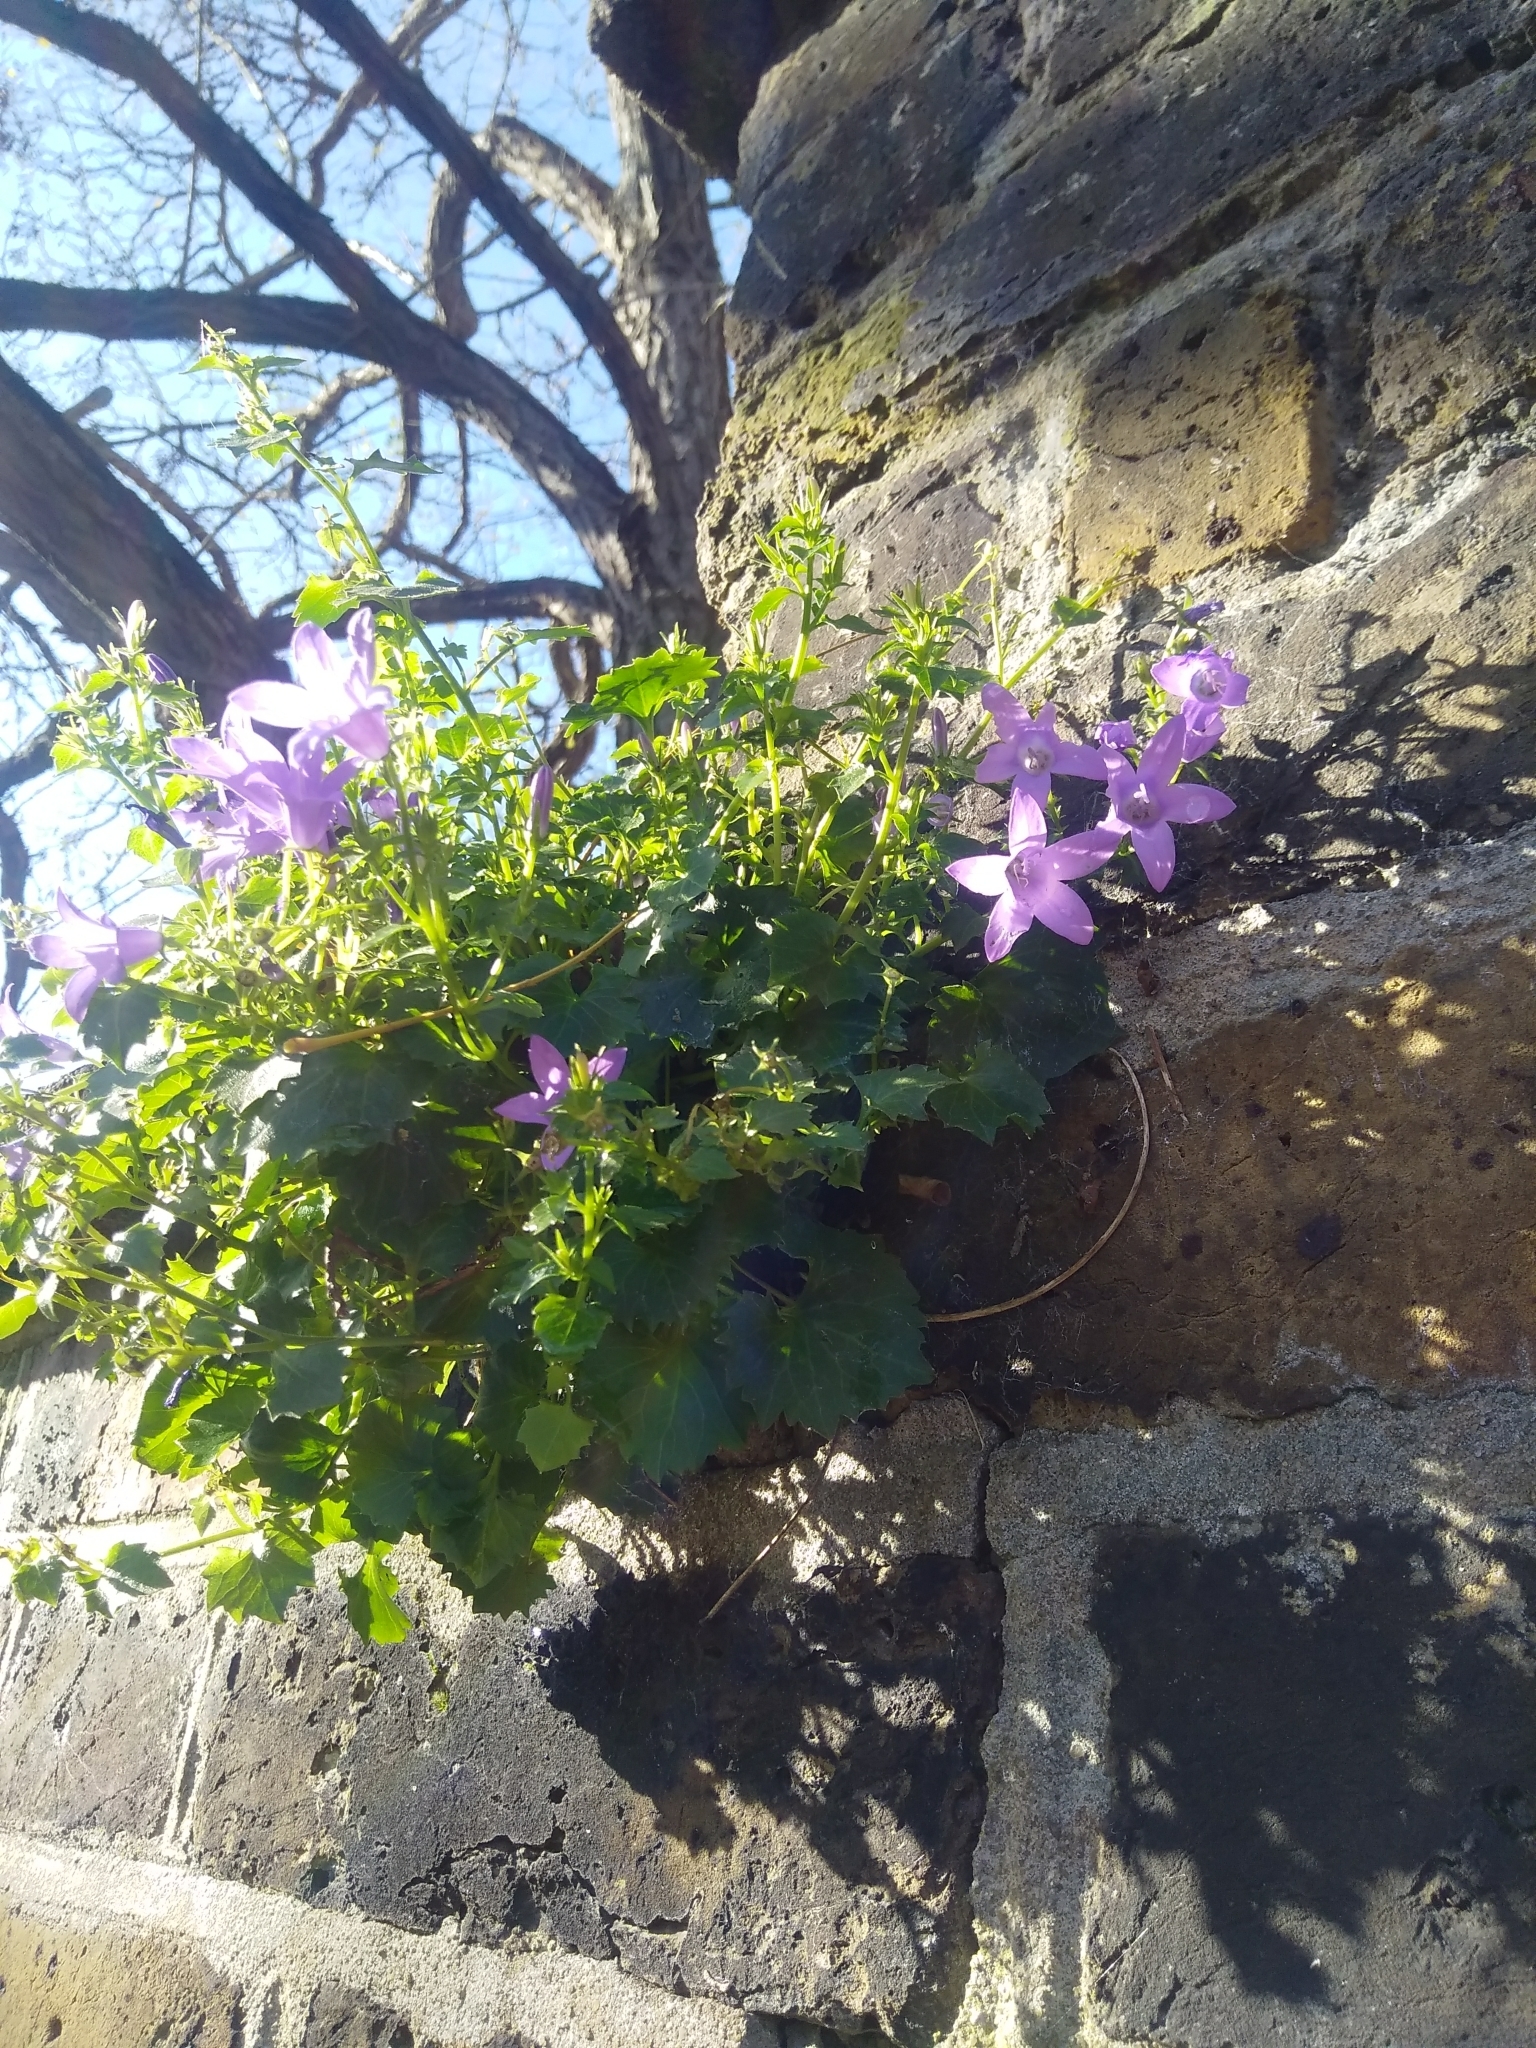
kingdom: Plantae
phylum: Tracheophyta
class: Magnoliopsida
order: Asterales
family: Campanulaceae
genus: Campanula
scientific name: Campanula portenschlagiana
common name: Adria bellflower
